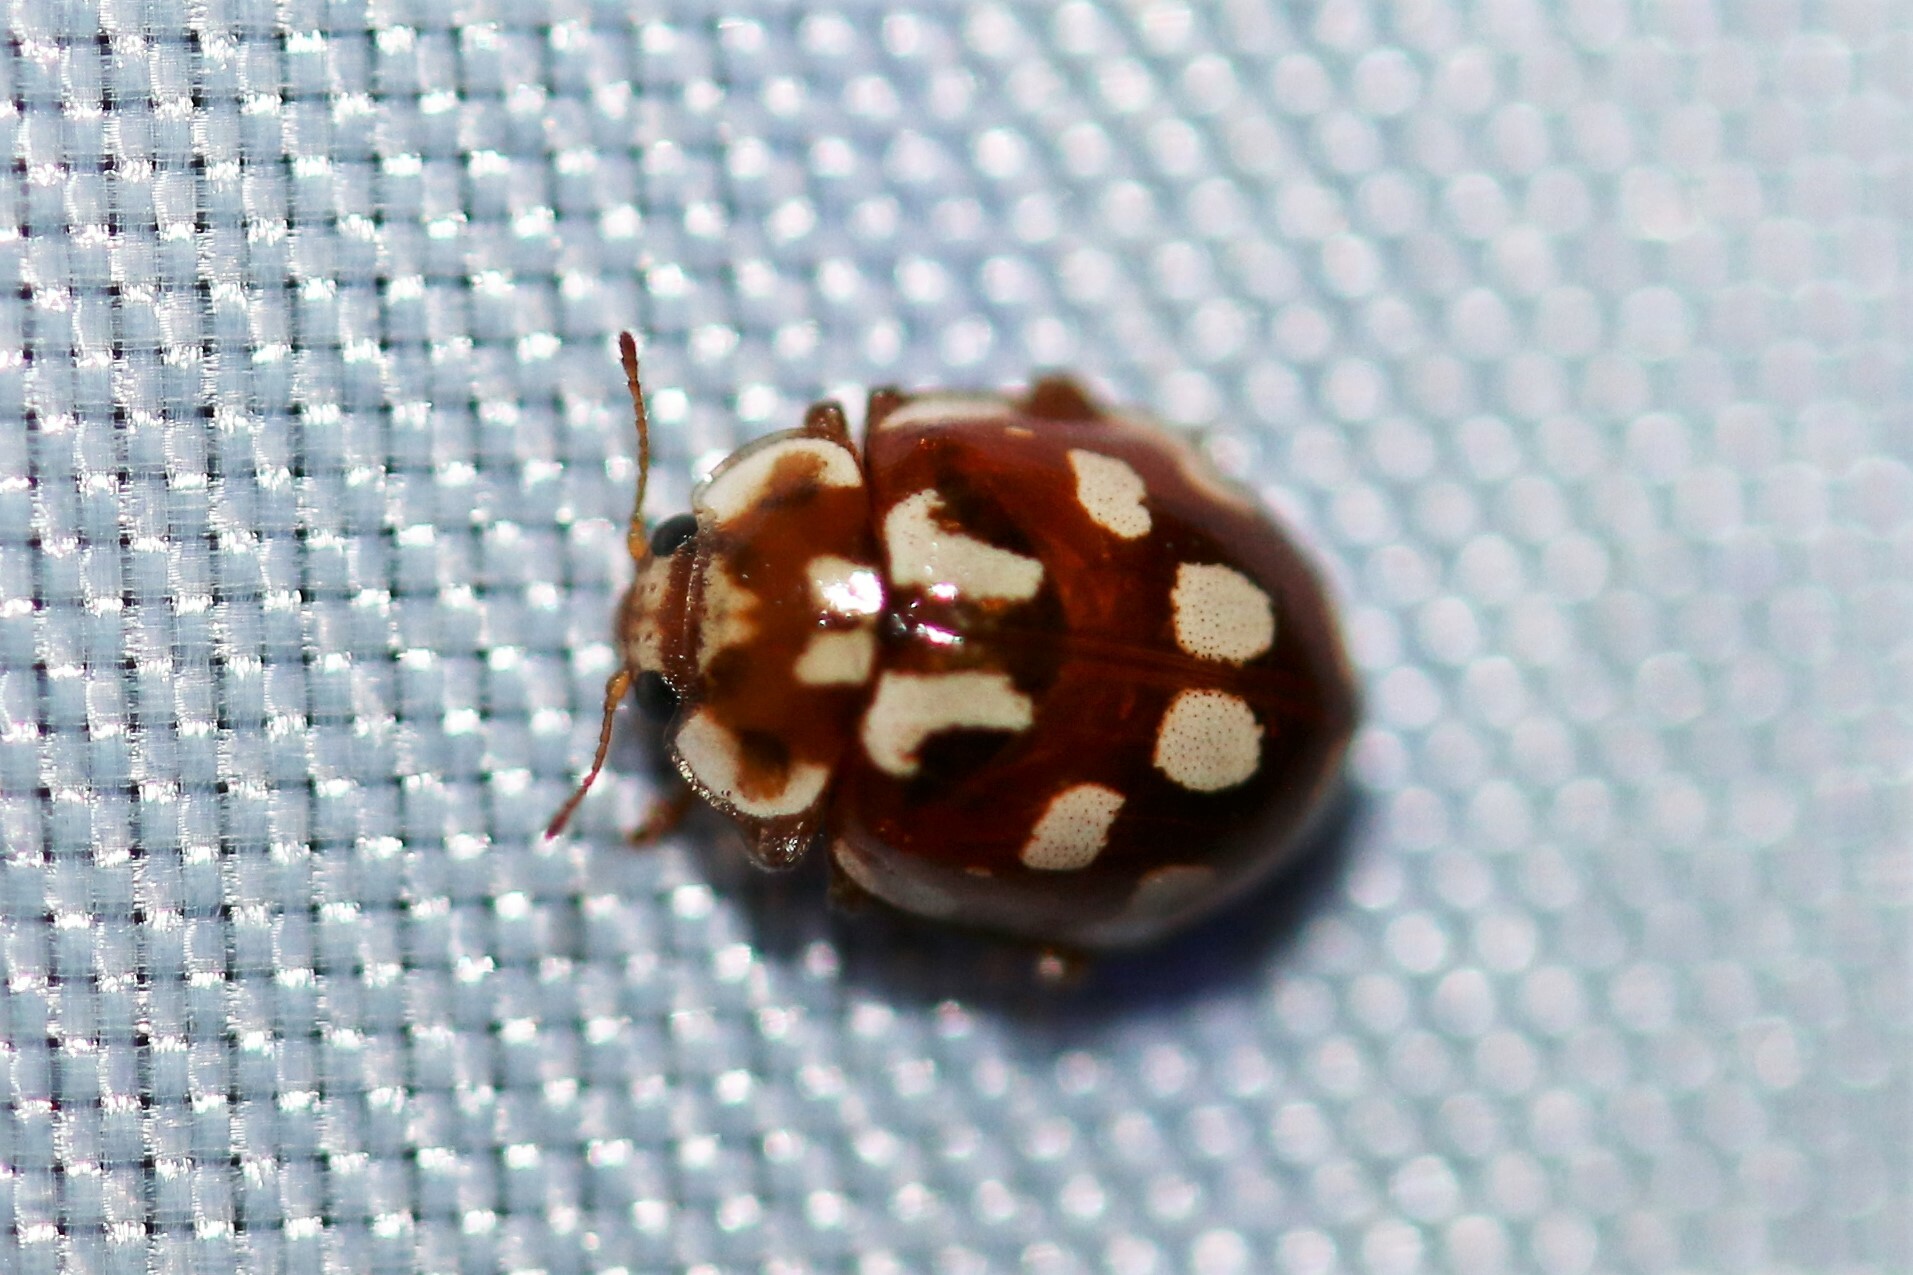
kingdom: Animalia
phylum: Arthropoda
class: Insecta
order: Coleoptera
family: Coccinellidae
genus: Myrrha
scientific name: Myrrha octodecimguttata
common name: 18-spot ladybird
